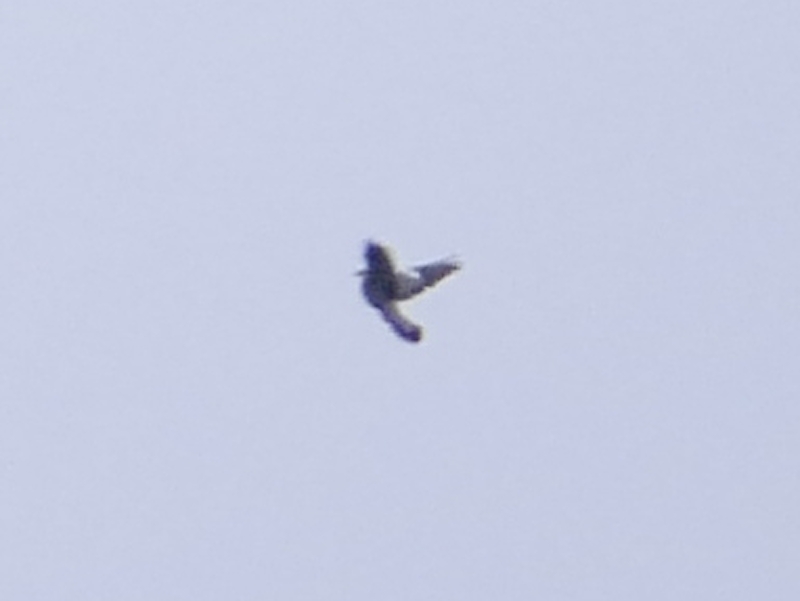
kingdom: Animalia
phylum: Chordata
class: Aves
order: Columbiformes
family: Columbidae
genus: Columba
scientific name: Columba palumbus
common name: Common wood pigeon
